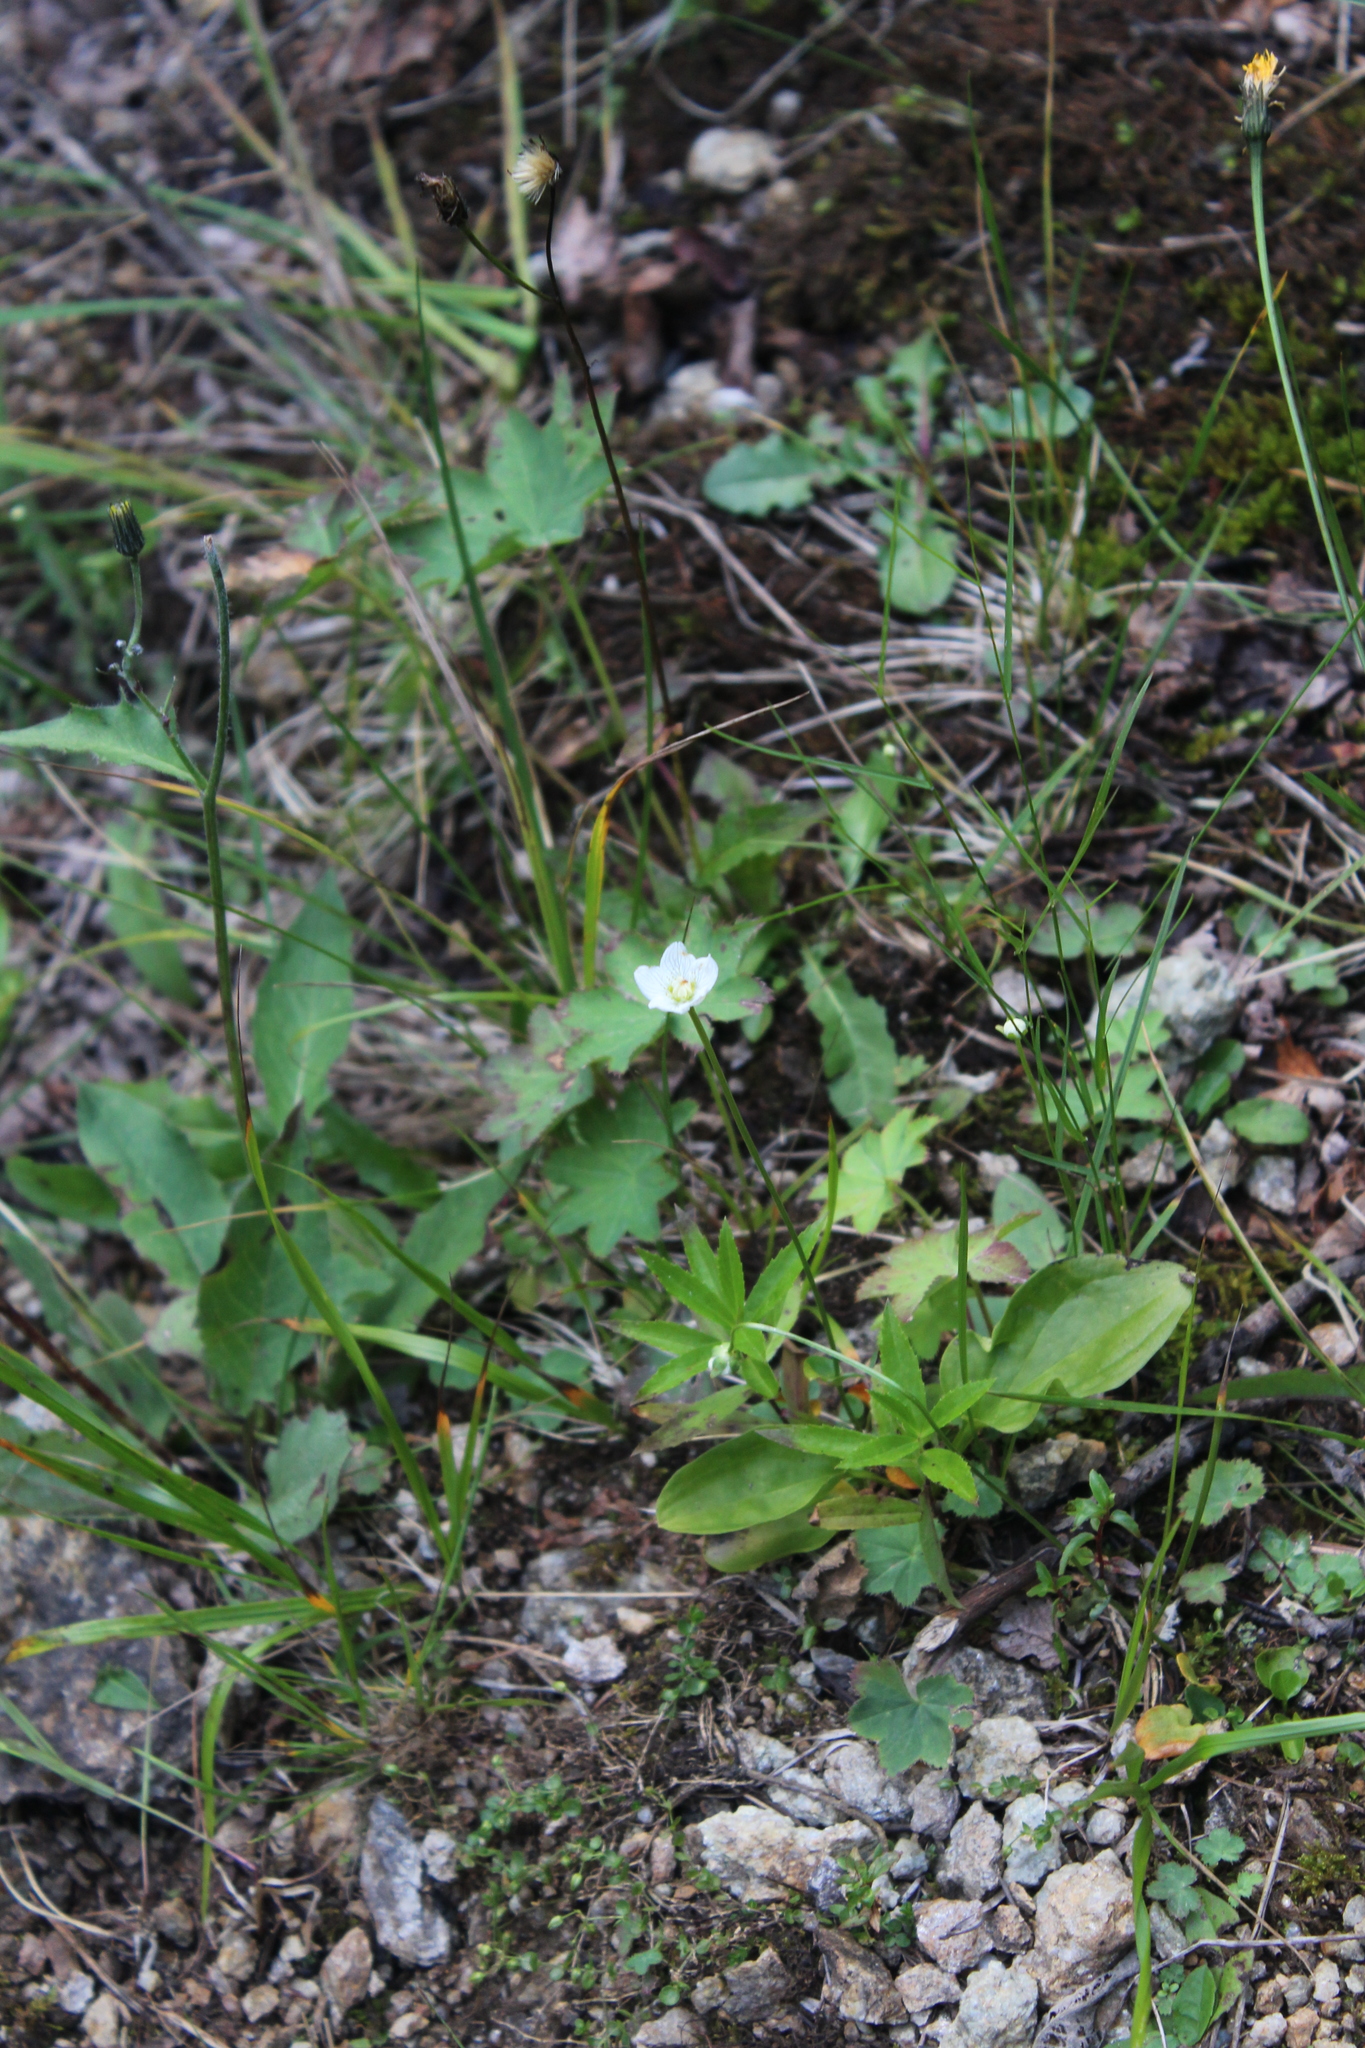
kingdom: Plantae
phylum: Tracheophyta
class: Magnoliopsida
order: Celastrales
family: Parnassiaceae
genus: Parnassia
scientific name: Parnassia palustris
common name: Grass-of-parnassus
